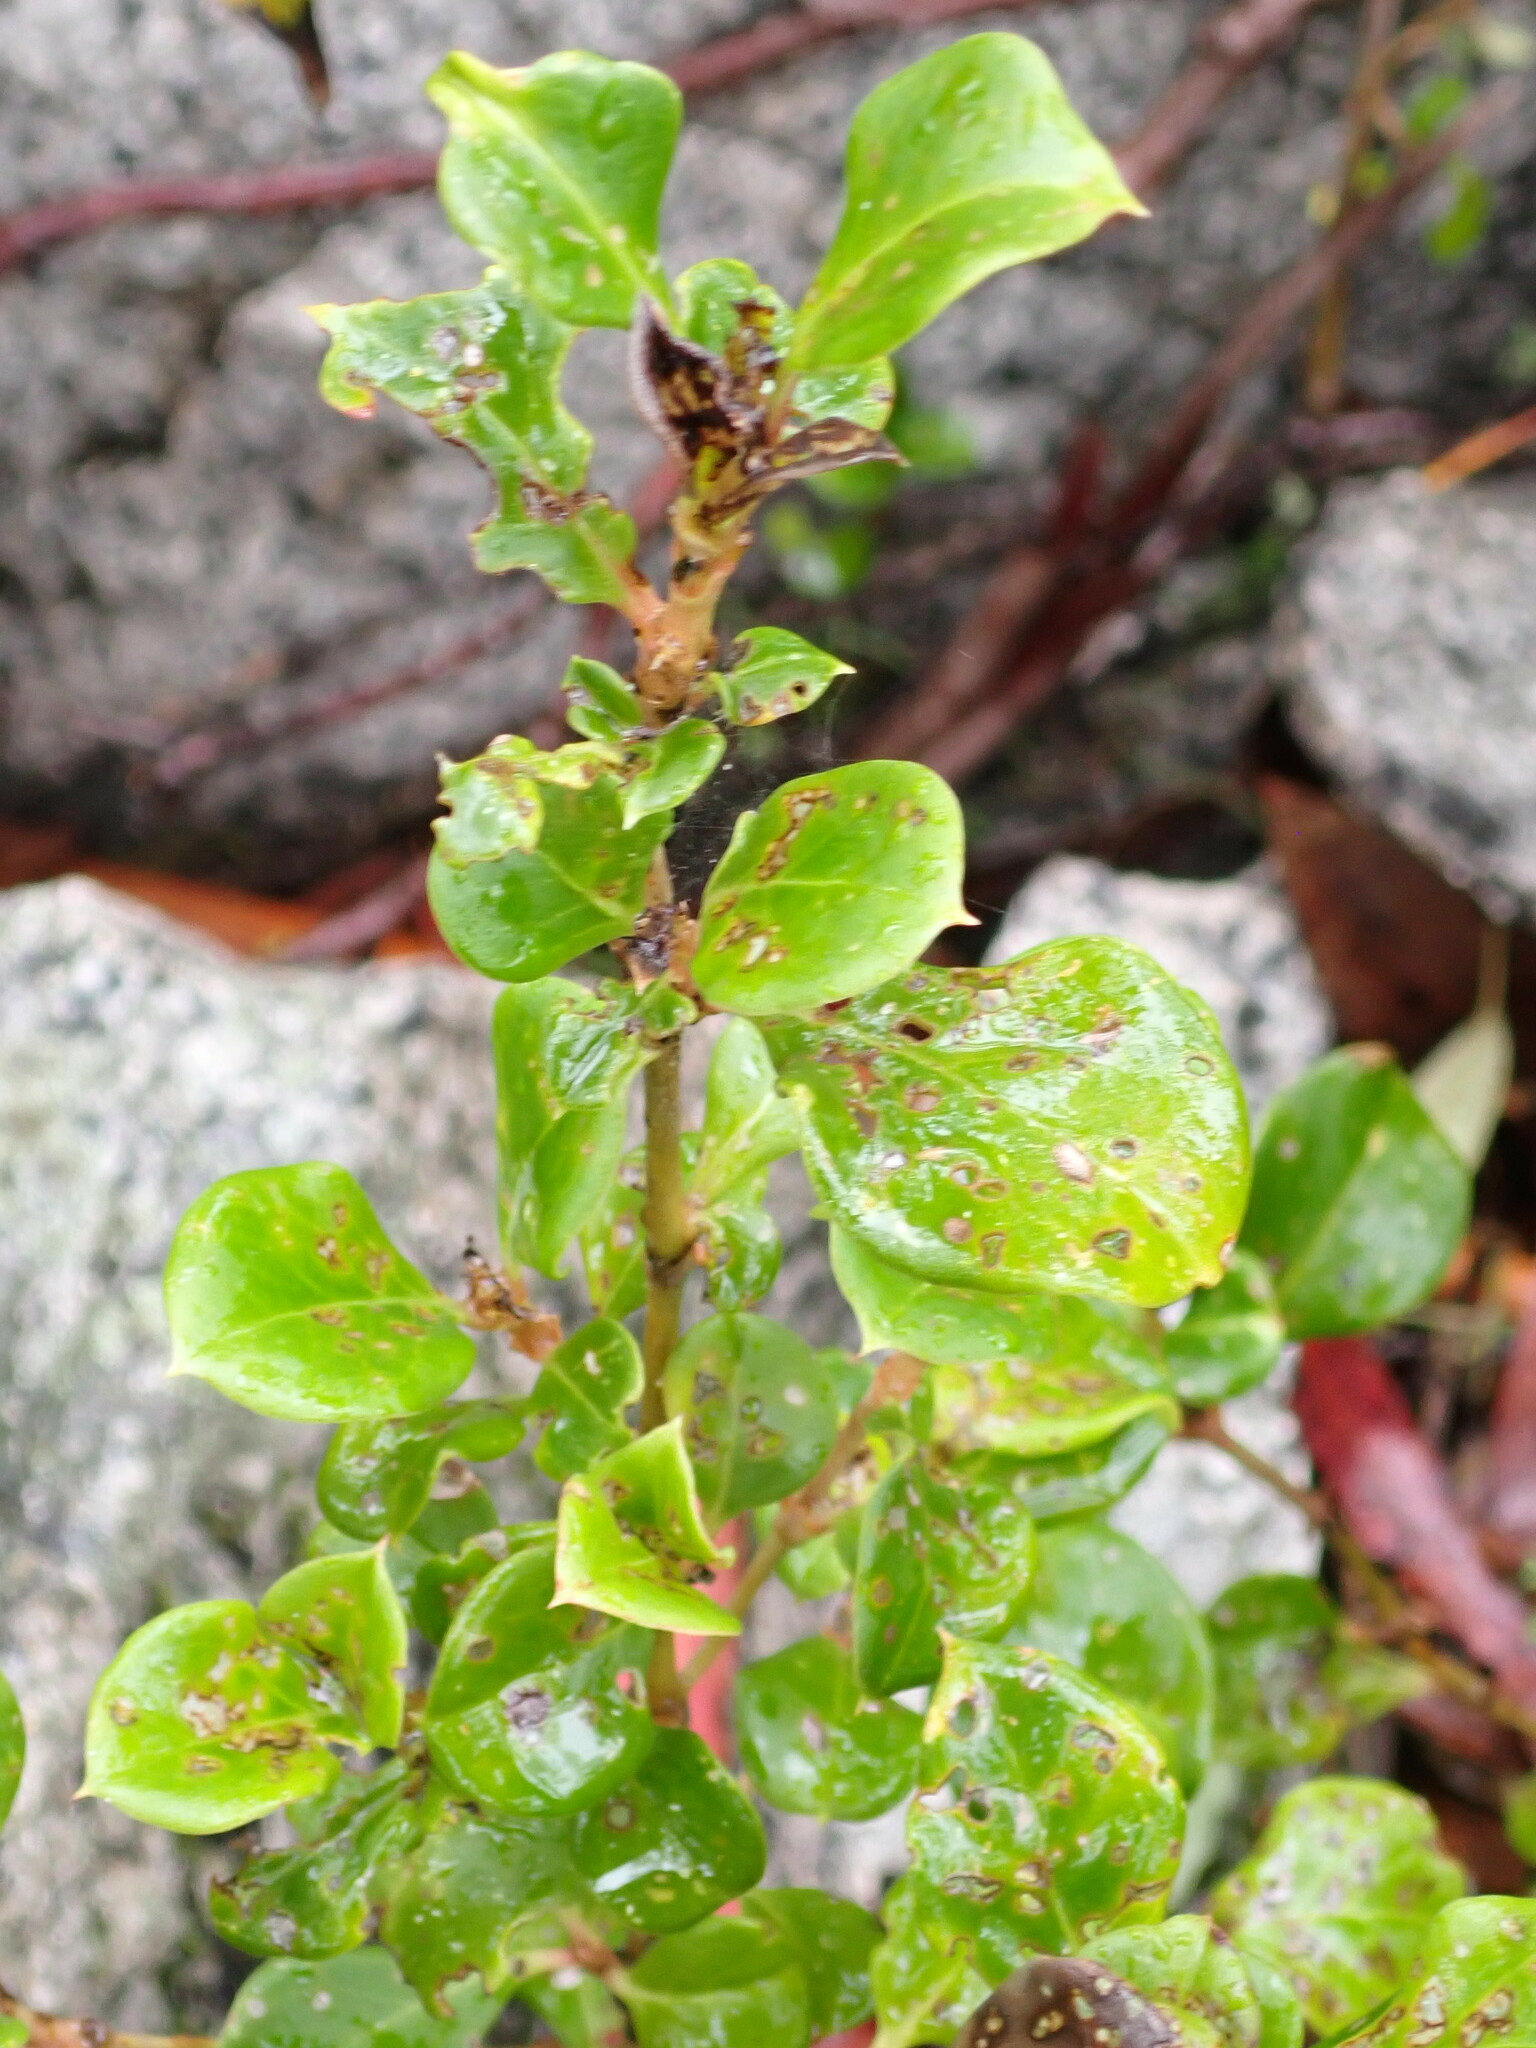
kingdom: Plantae
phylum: Tracheophyta
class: Magnoliopsida
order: Gentianales
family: Rubiaceae
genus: Coprosma
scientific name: Coprosma hirtella
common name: Rough coprosma
